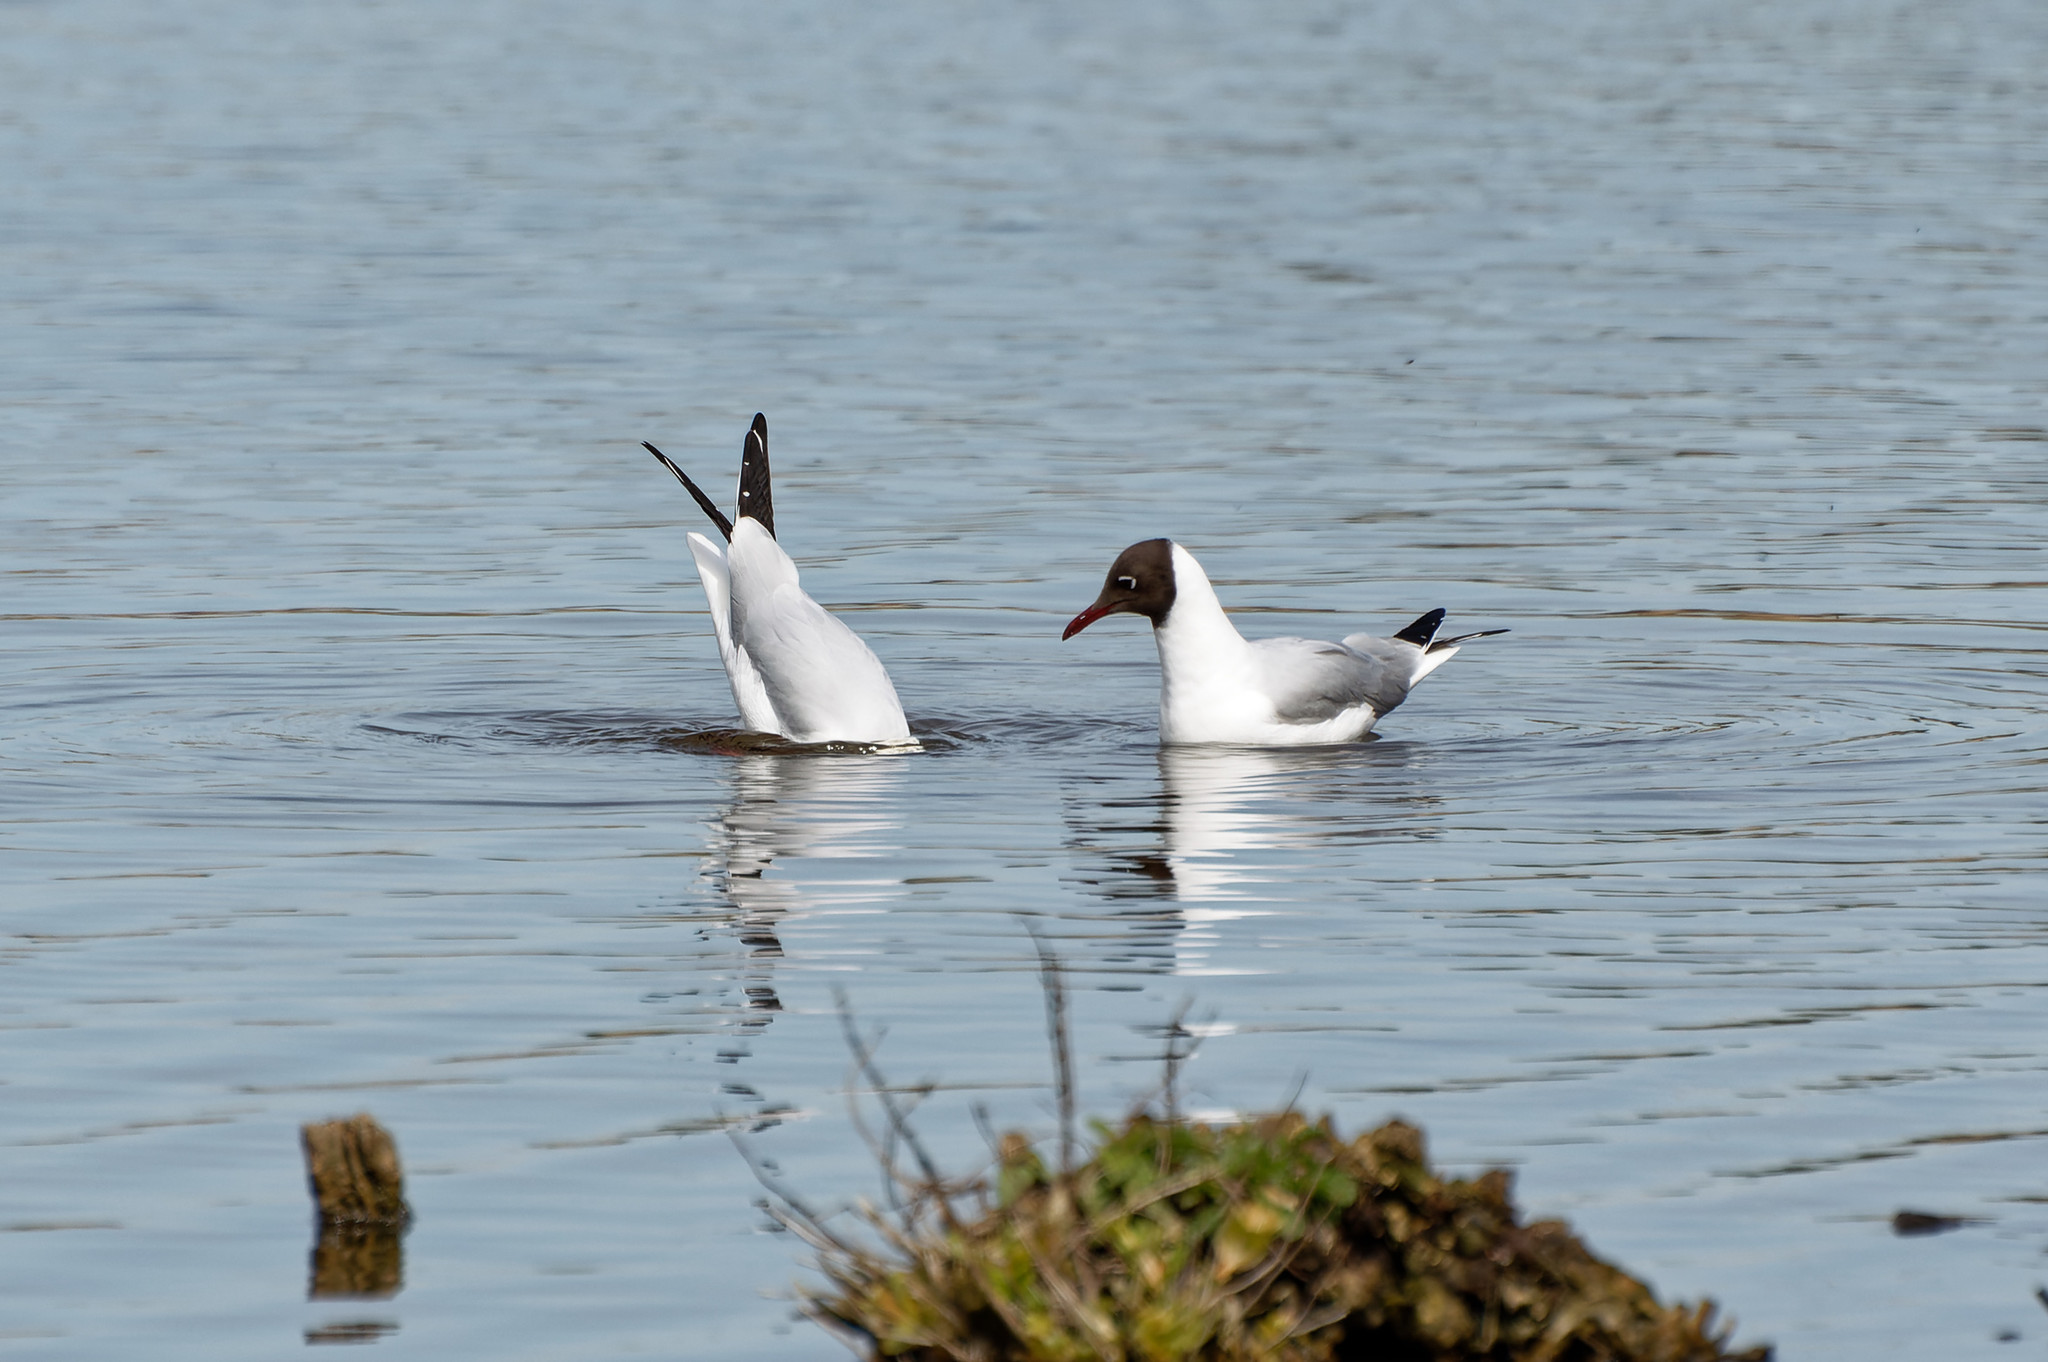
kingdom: Animalia
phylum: Chordata
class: Aves
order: Charadriiformes
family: Laridae
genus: Chroicocephalus
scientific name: Chroicocephalus ridibundus
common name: Black-headed gull
